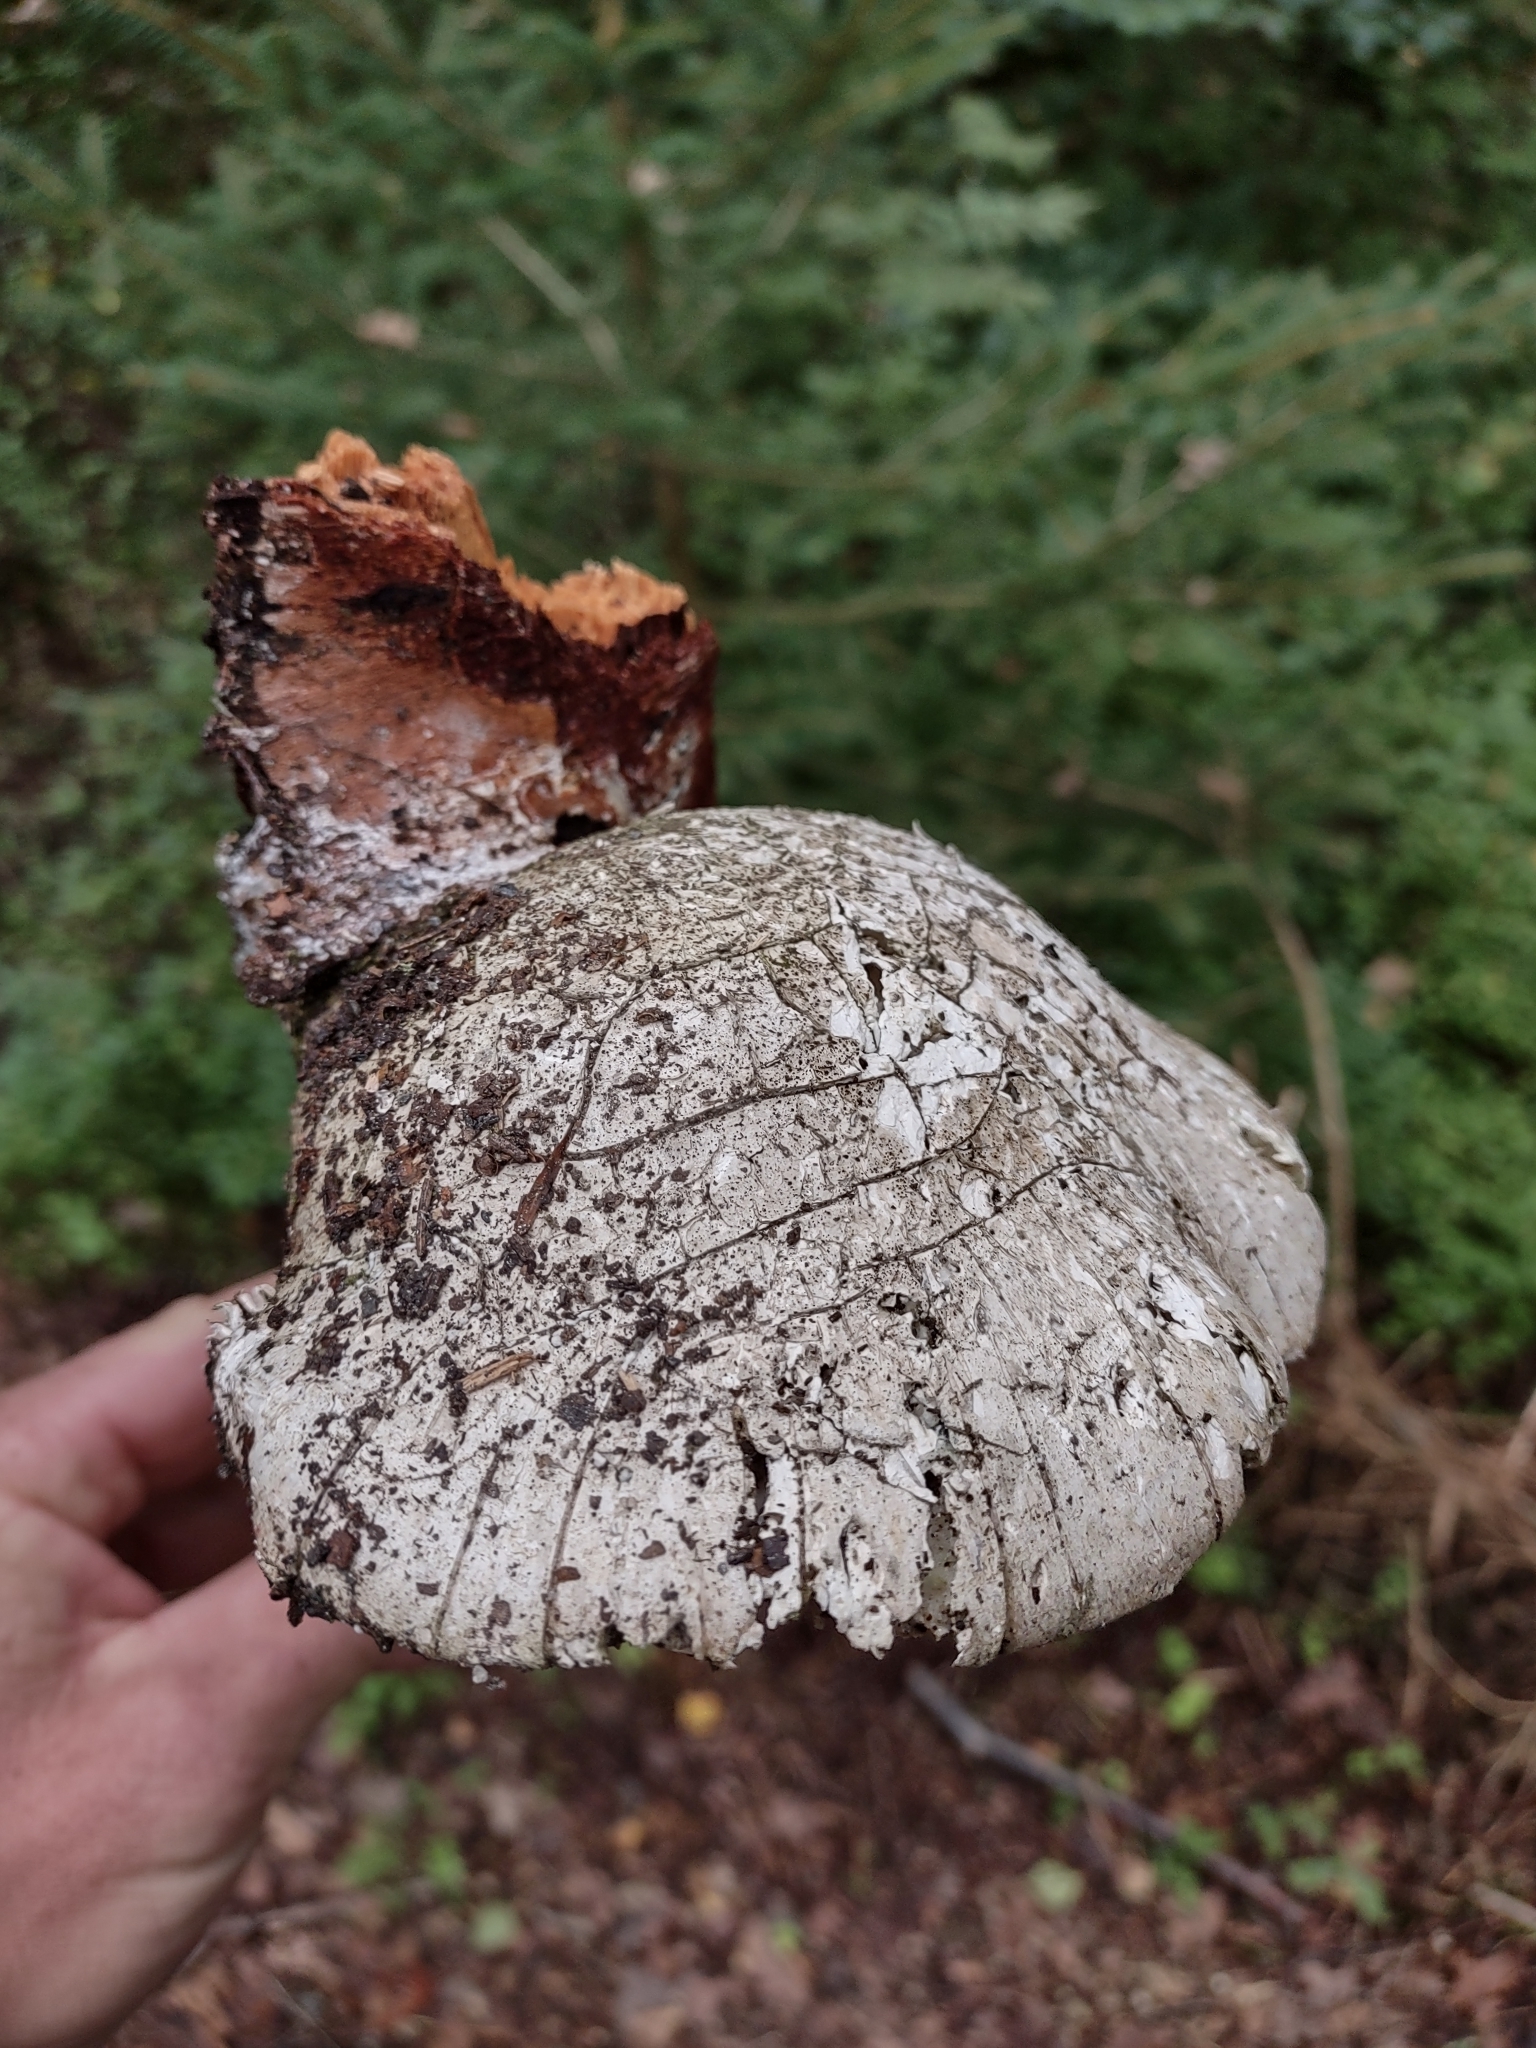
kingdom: Fungi
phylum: Basidiomycota
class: Agaricomycetes
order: Polyporales
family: Fomitopsidaceae
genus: Fomitopsis
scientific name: Fomitopsis betulina
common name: Birch polypore
